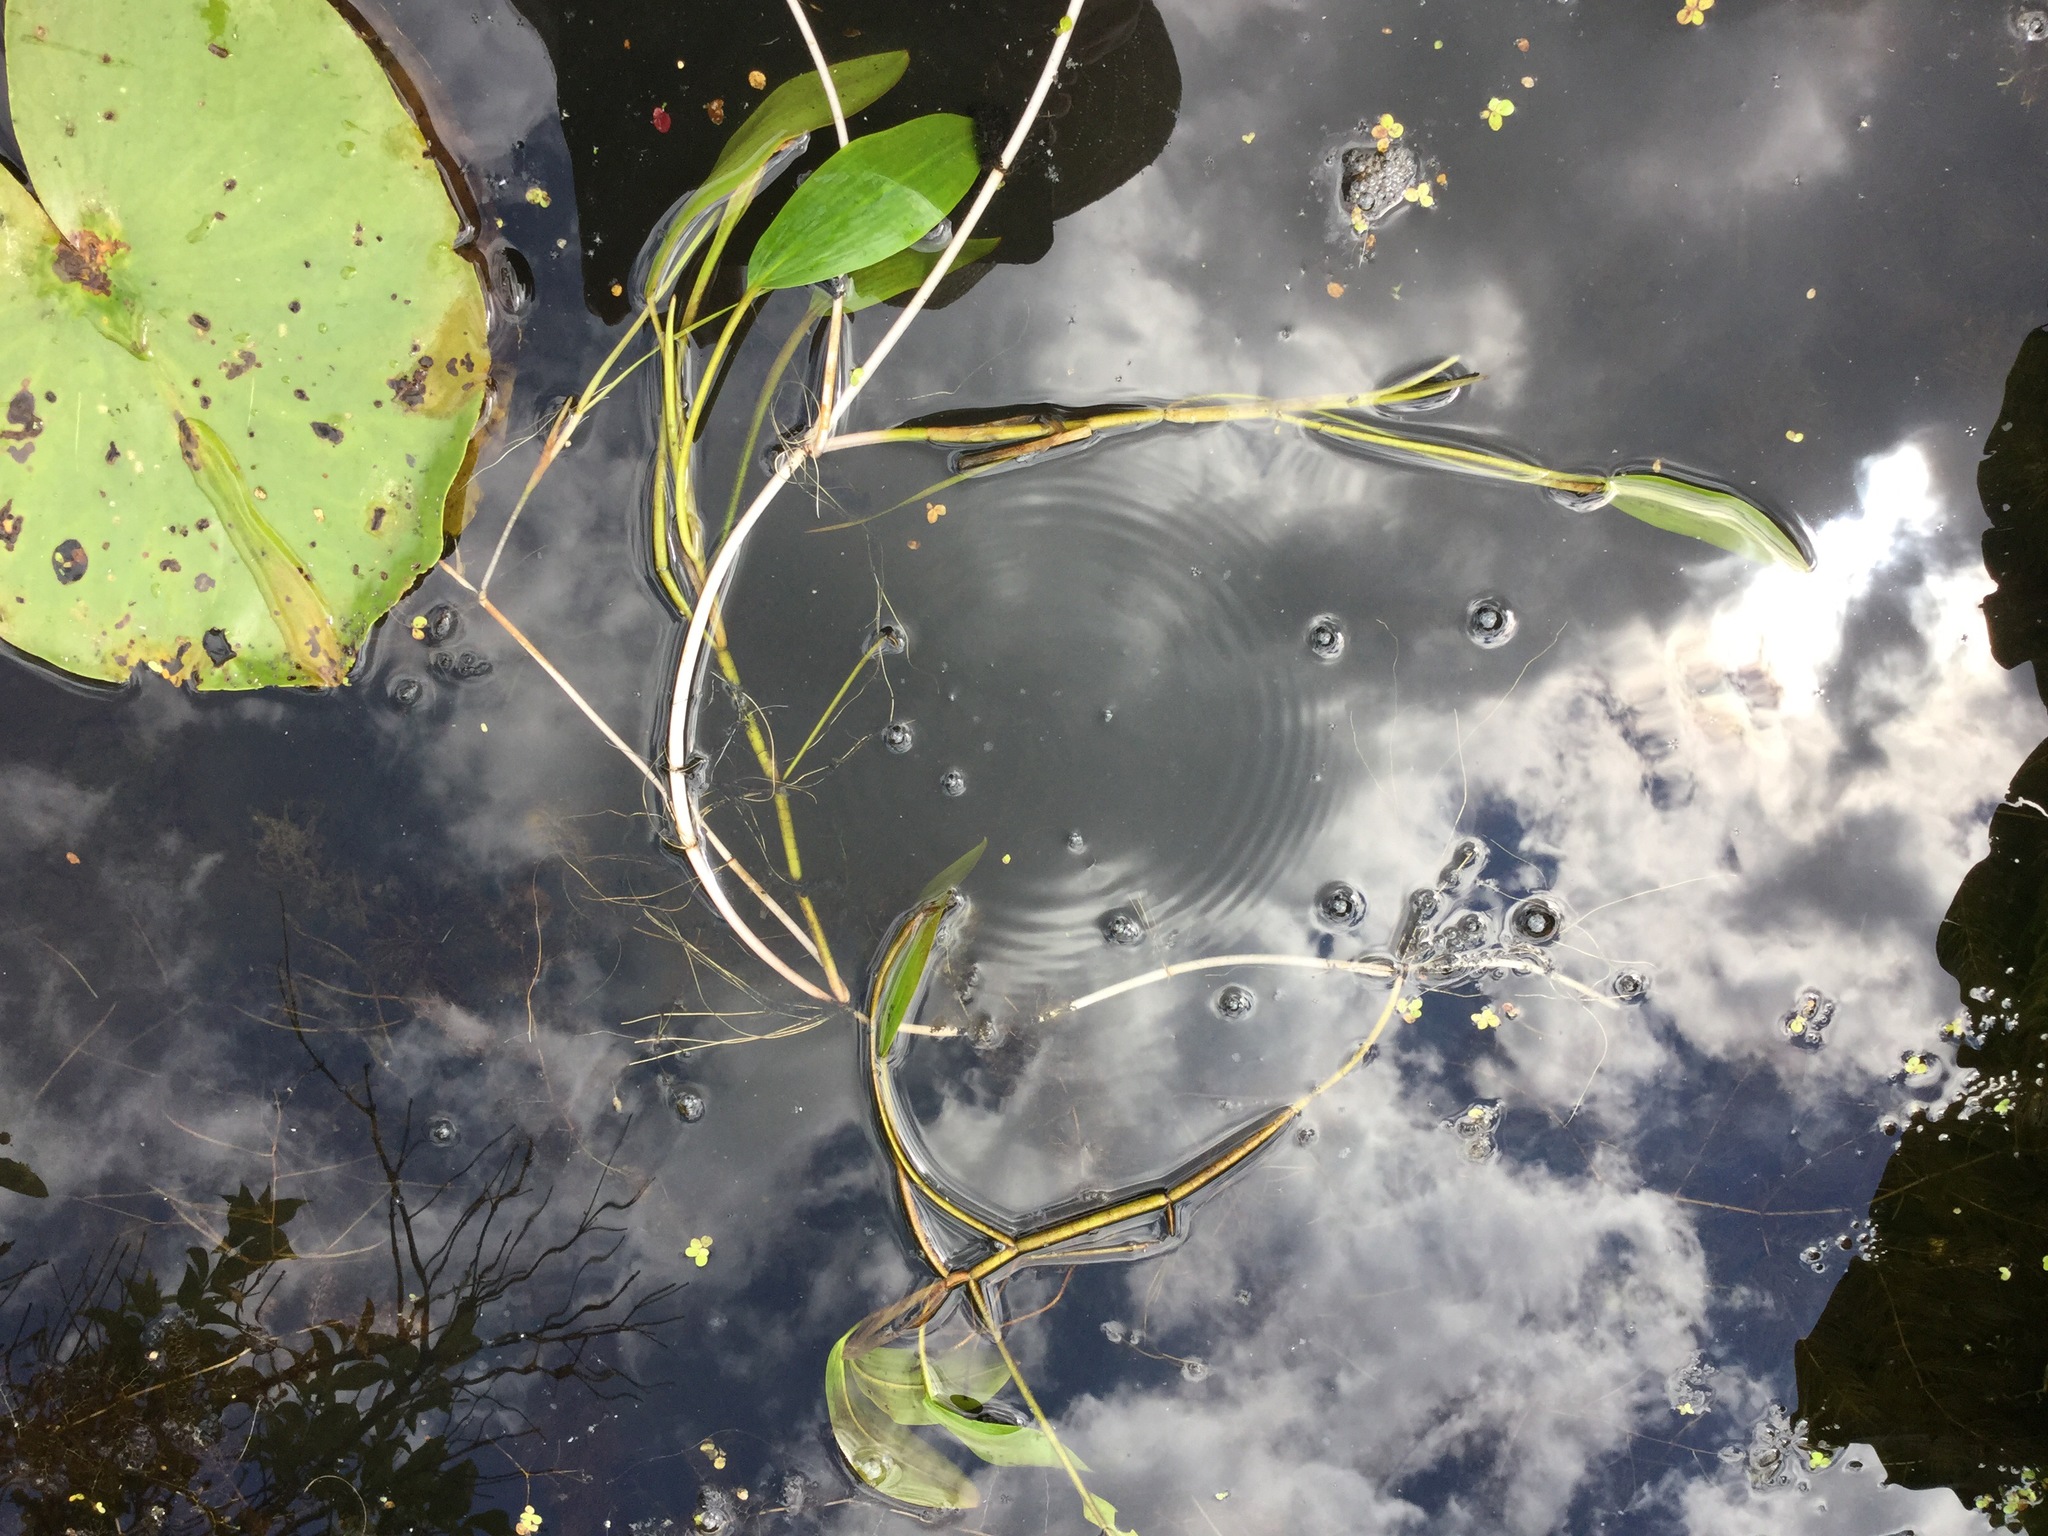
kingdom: Plantae
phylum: Tracheophyta
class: Liliopsida
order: Alismatales
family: Potamogetonaceae
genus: Potamogeton
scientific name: Potamogeton nodosus
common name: Loddon pondweed
